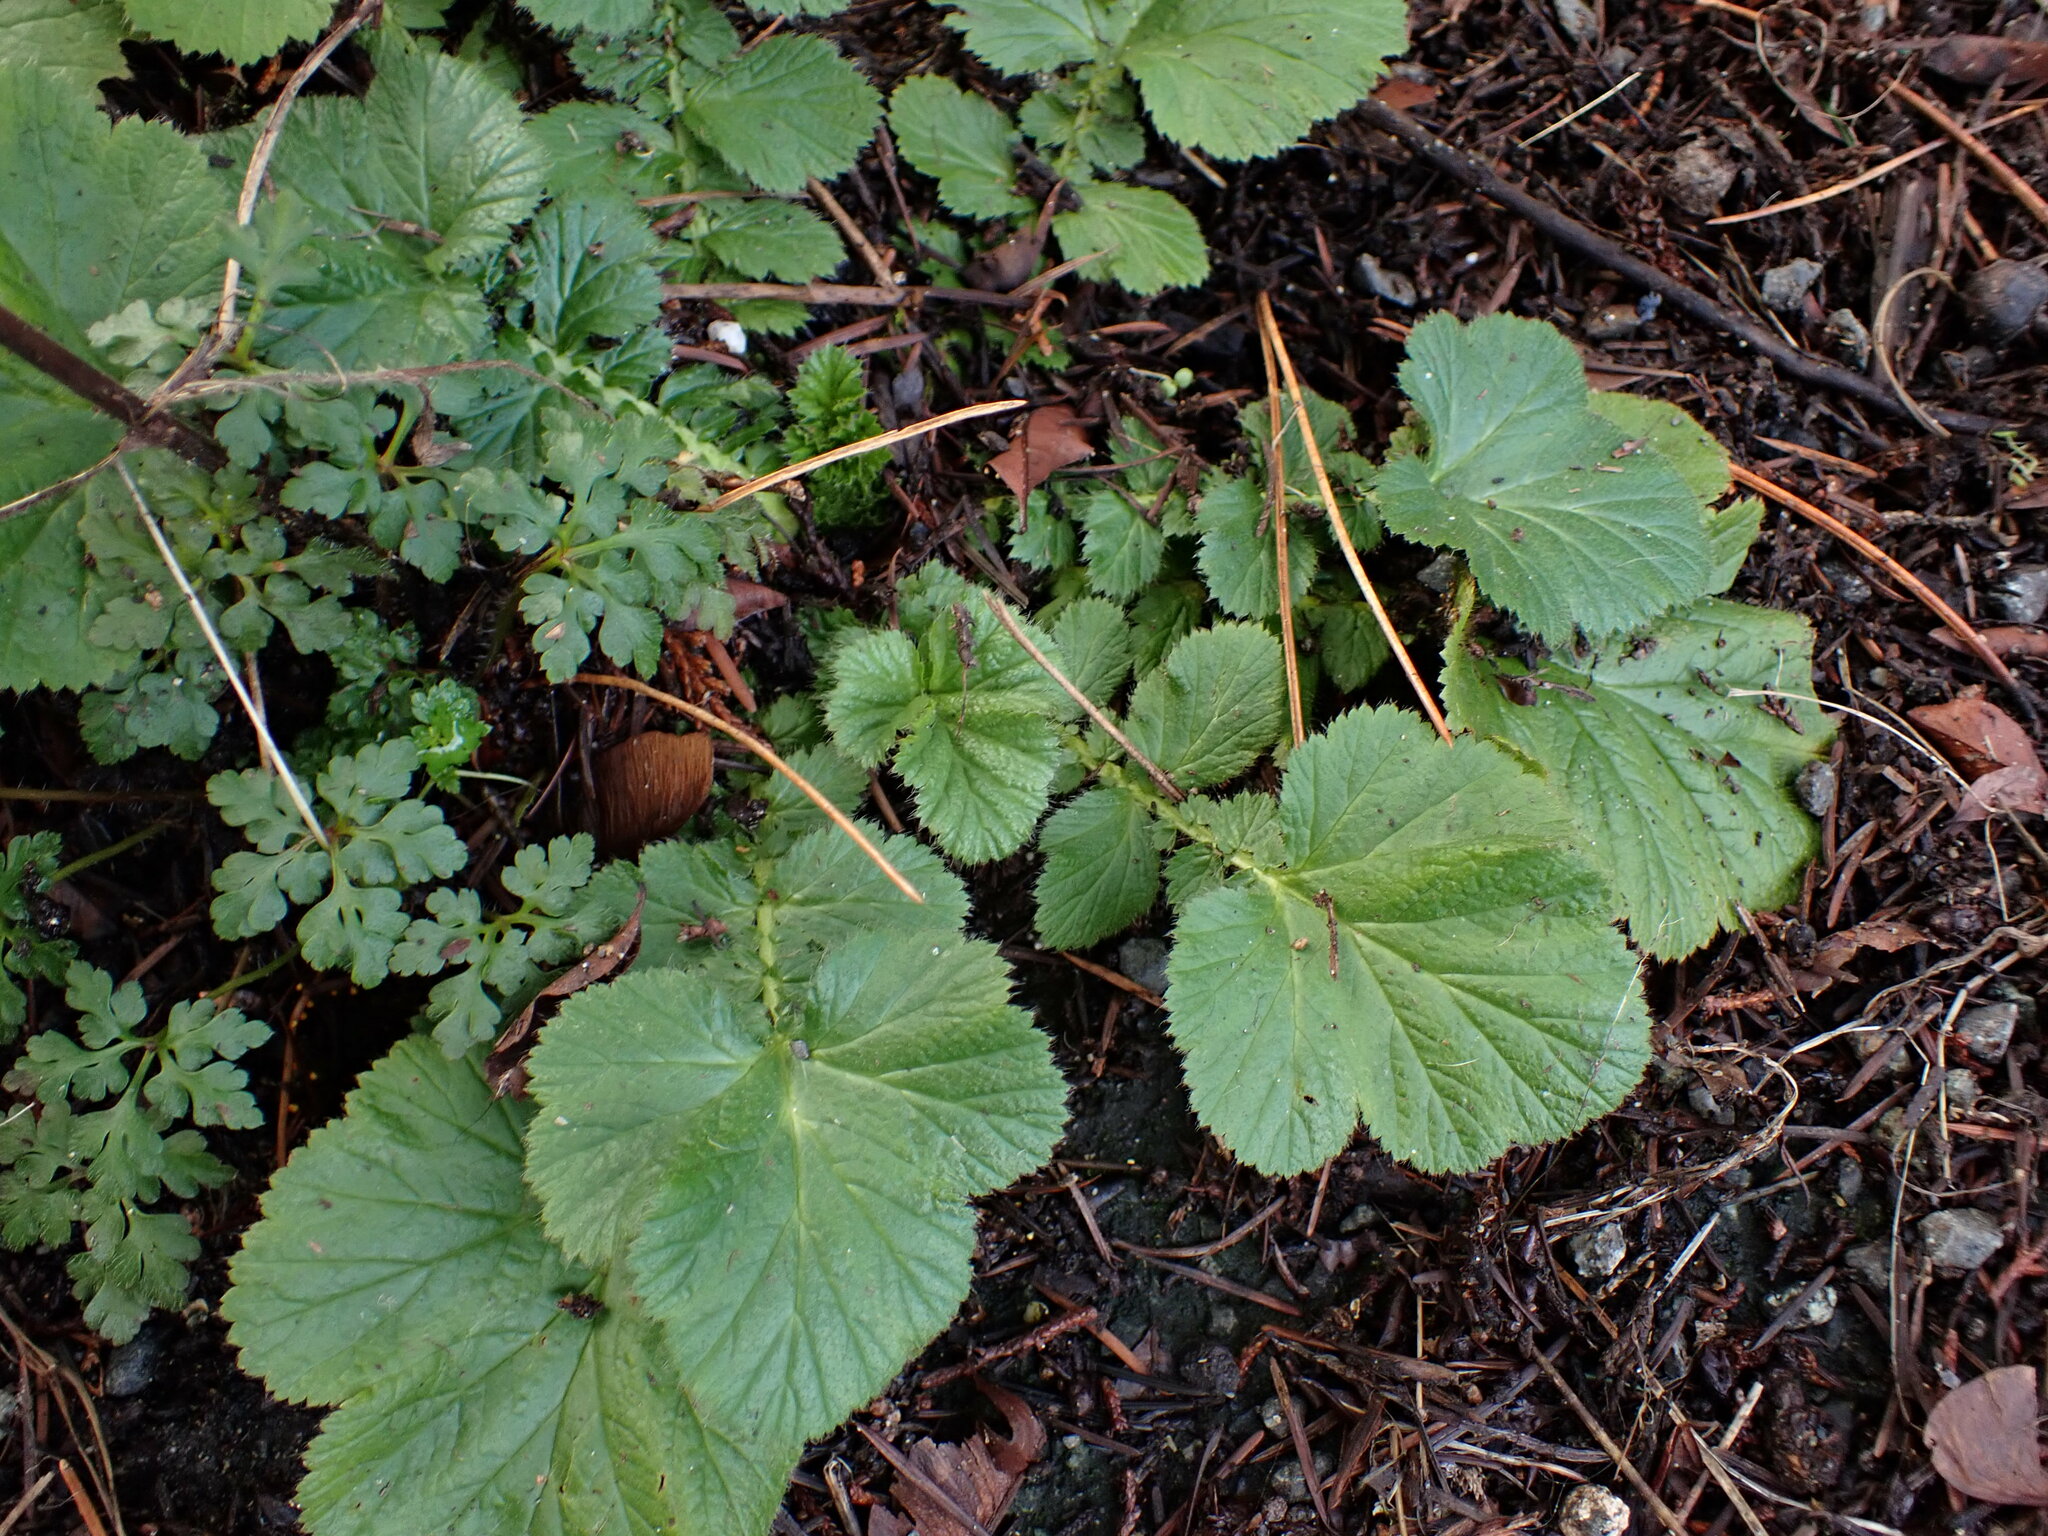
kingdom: Plantae
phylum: Tracheophyta
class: Magnoliopsida
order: Rosales
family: Rosaceae
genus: Geum
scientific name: Geum macrophyllum
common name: Large-leaved avens
